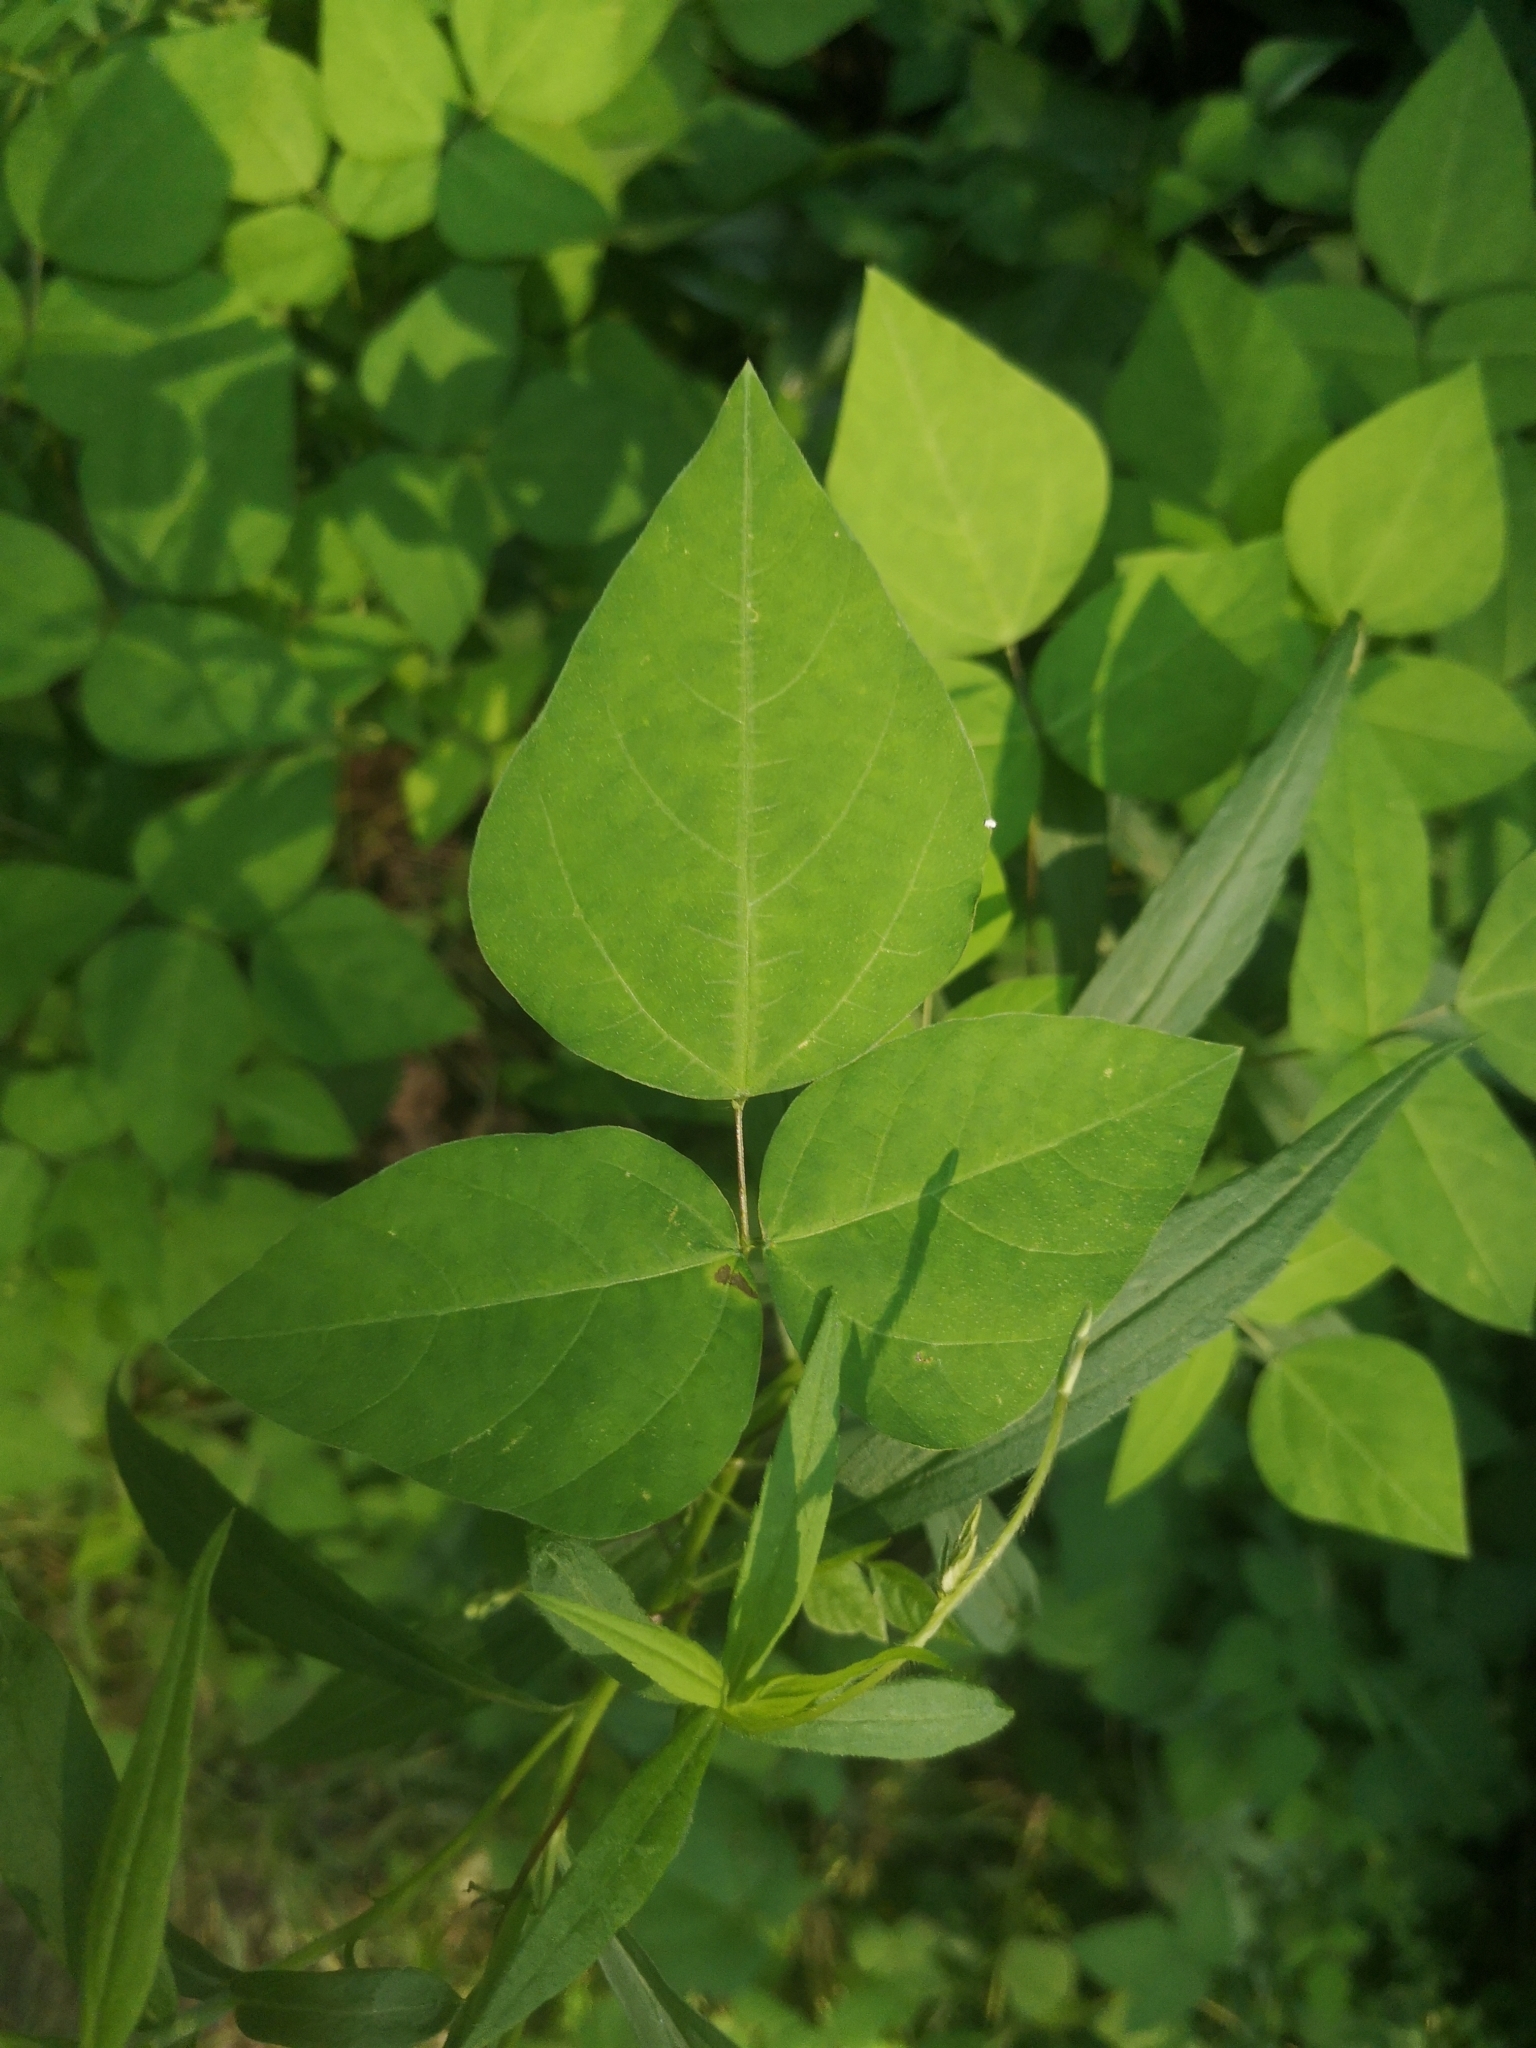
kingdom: Plantae
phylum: Tracheophyta
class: Magnoliopsida
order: Fabales
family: Fabaceae
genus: Amphicarpaea
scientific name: Amphicarpaea bracteata
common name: American hog peanut
